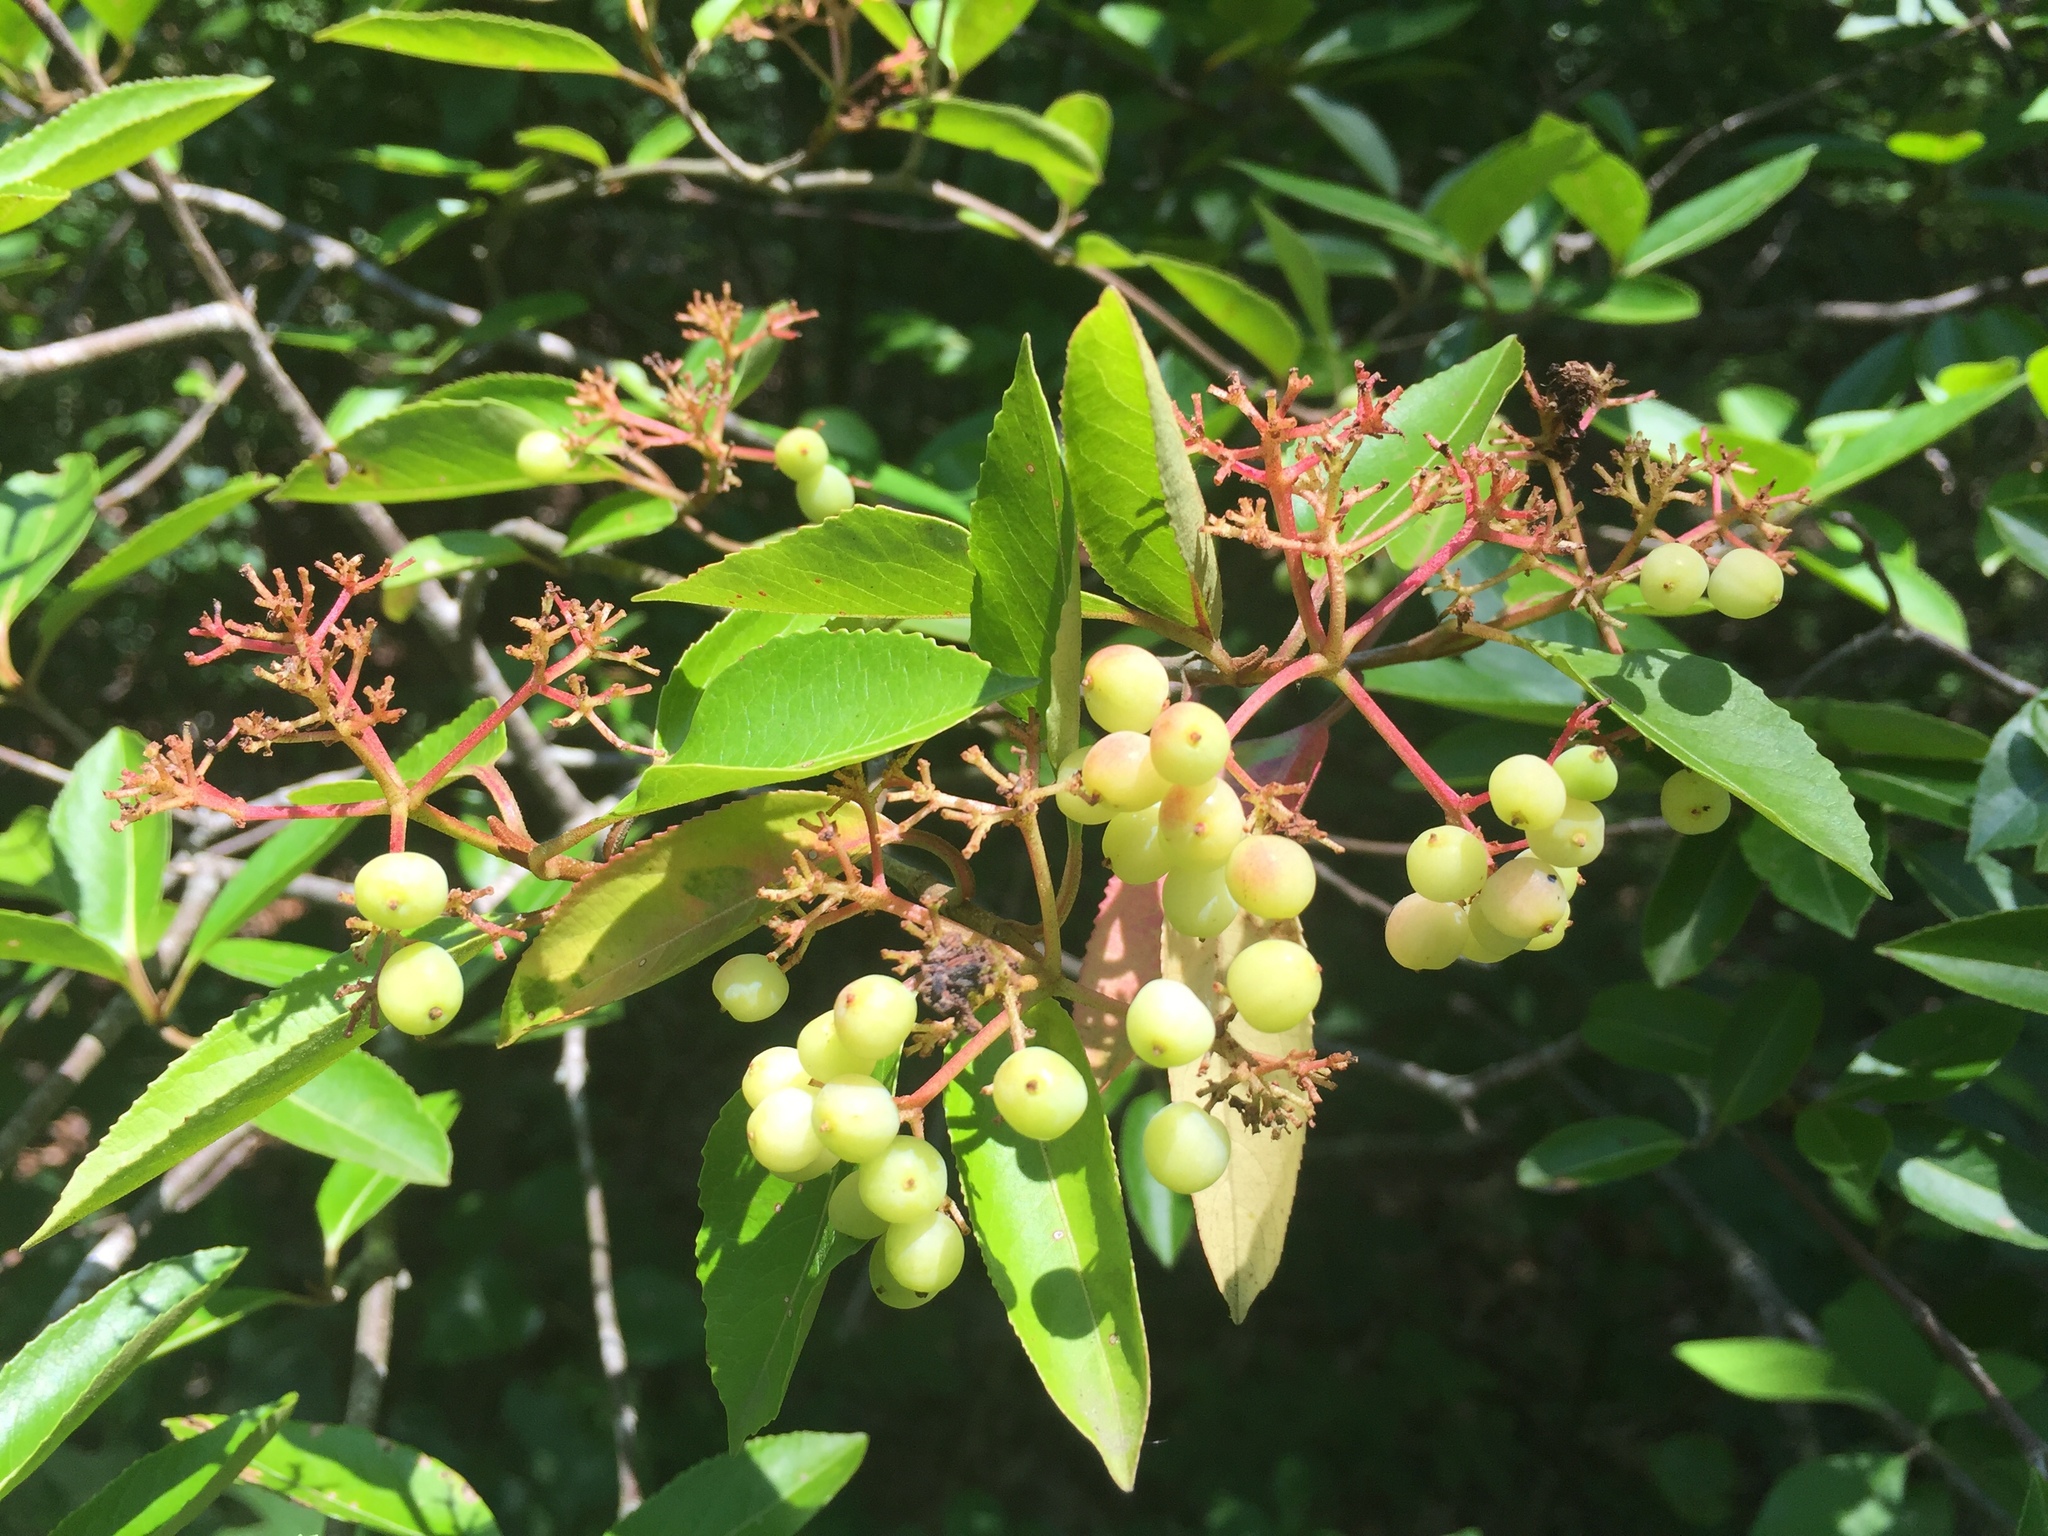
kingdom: Plantae
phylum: Tracheophyta
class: Magnoliopsida
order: Dipsacales
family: Viburnaceae
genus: Viburnum
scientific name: Viburnum cassinoides
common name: Swamp haw
